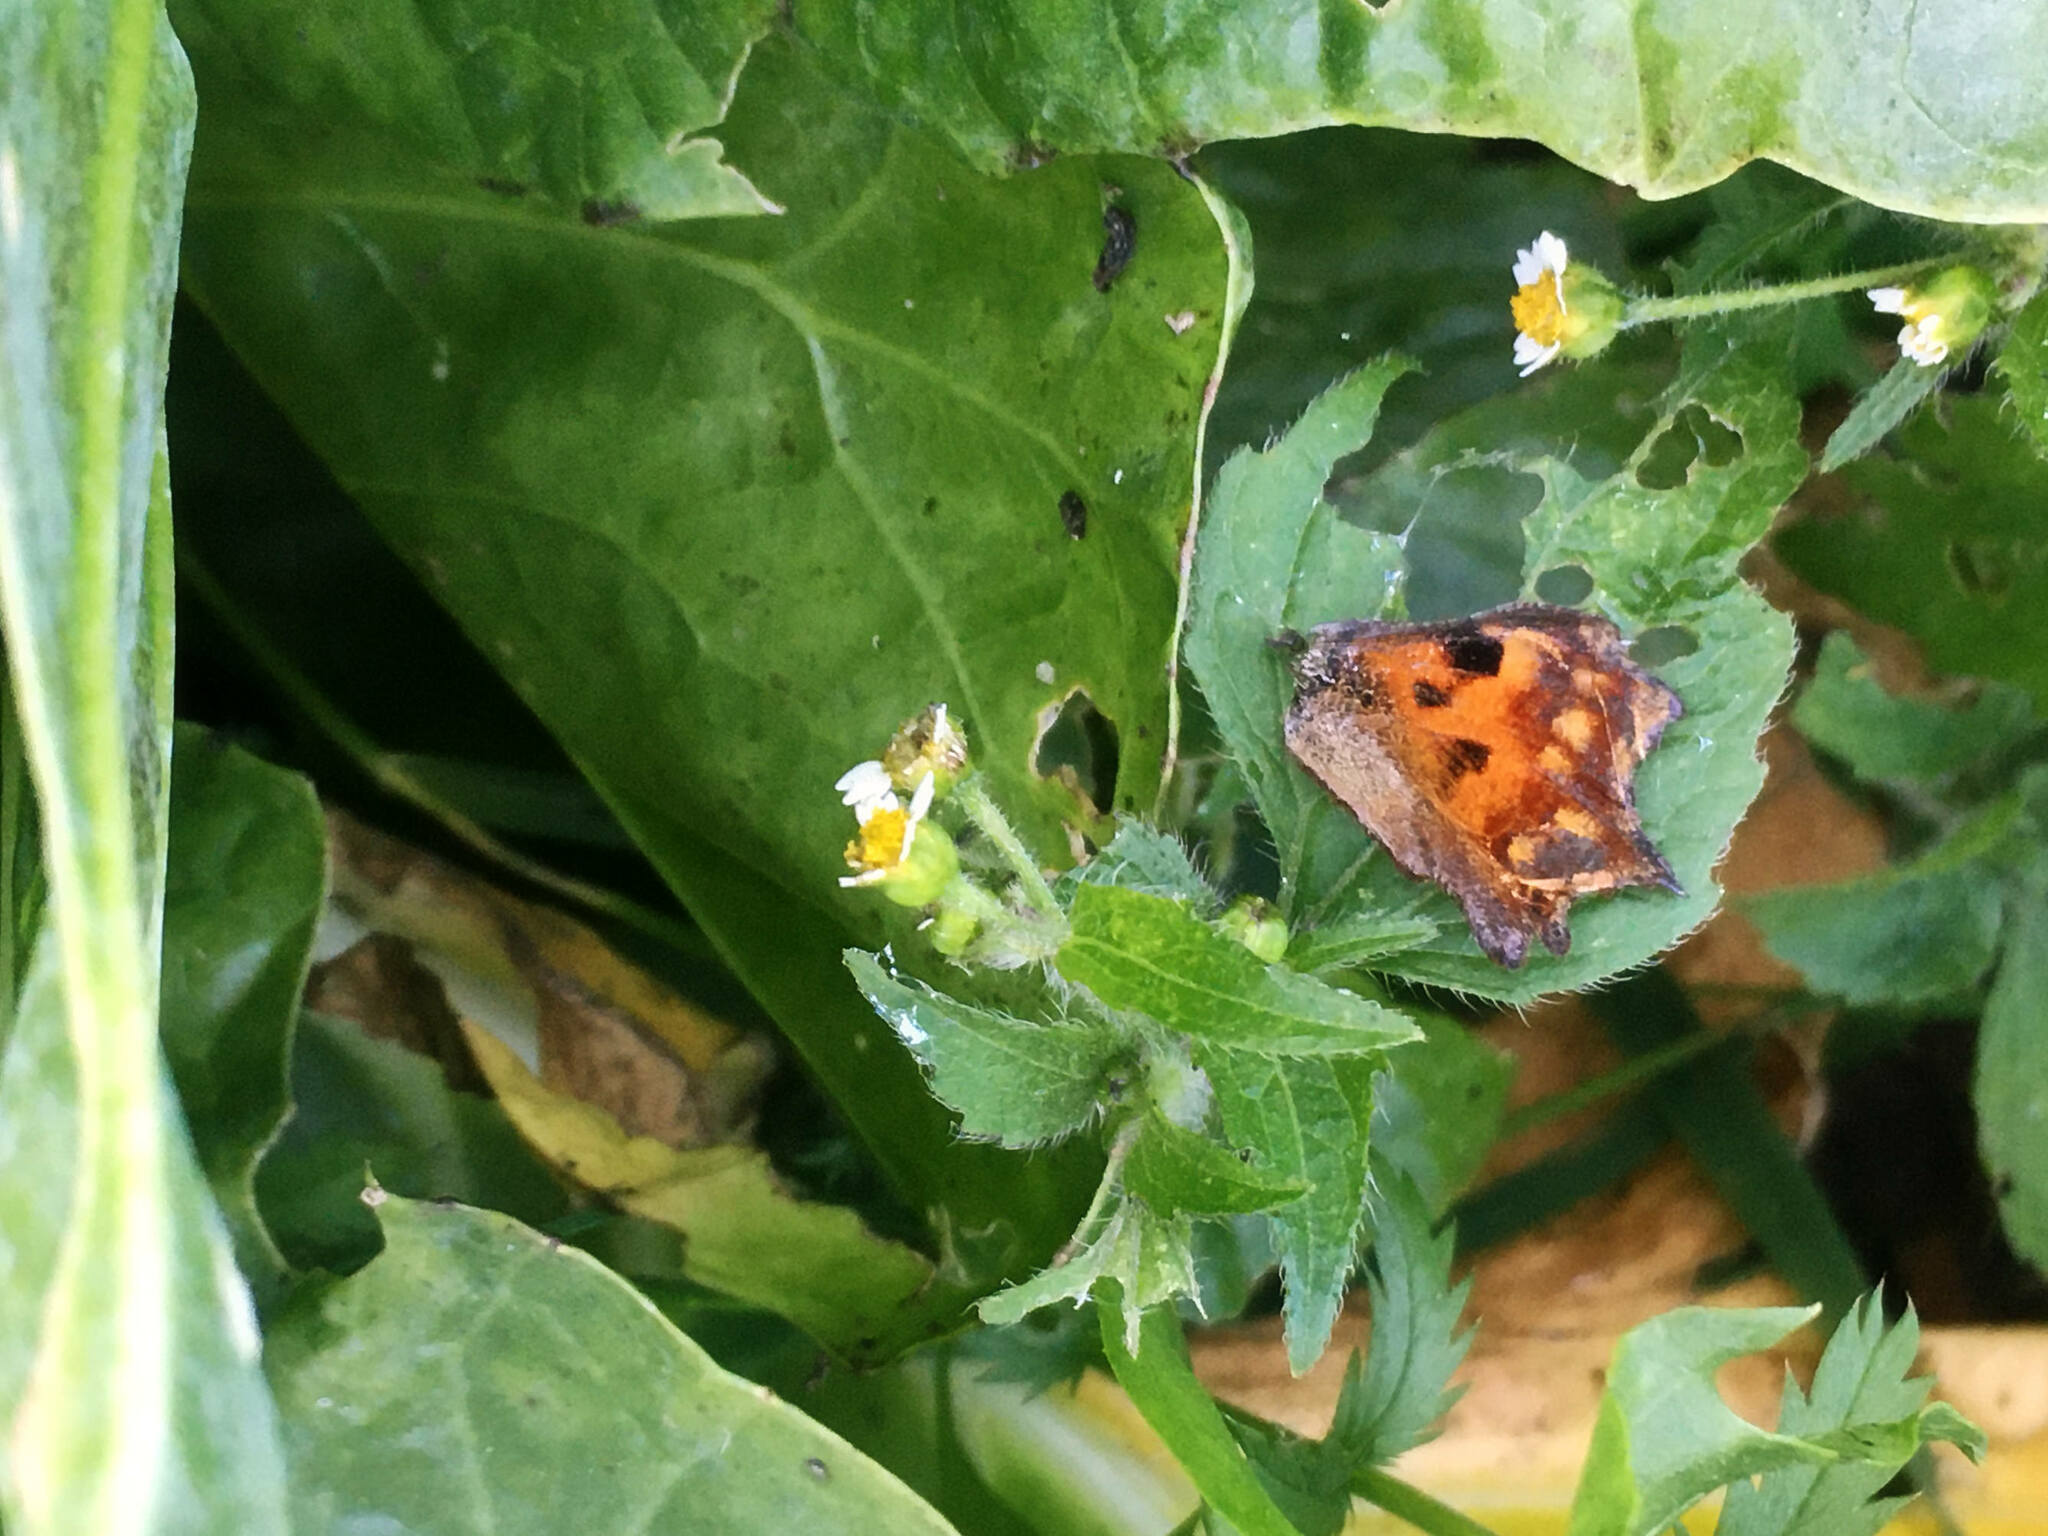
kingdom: Animalia
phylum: Arthropoda
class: Insecta
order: Lepidoptera
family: Nymphalidae
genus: Polygonia
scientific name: Polygonia c-album
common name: Comma
